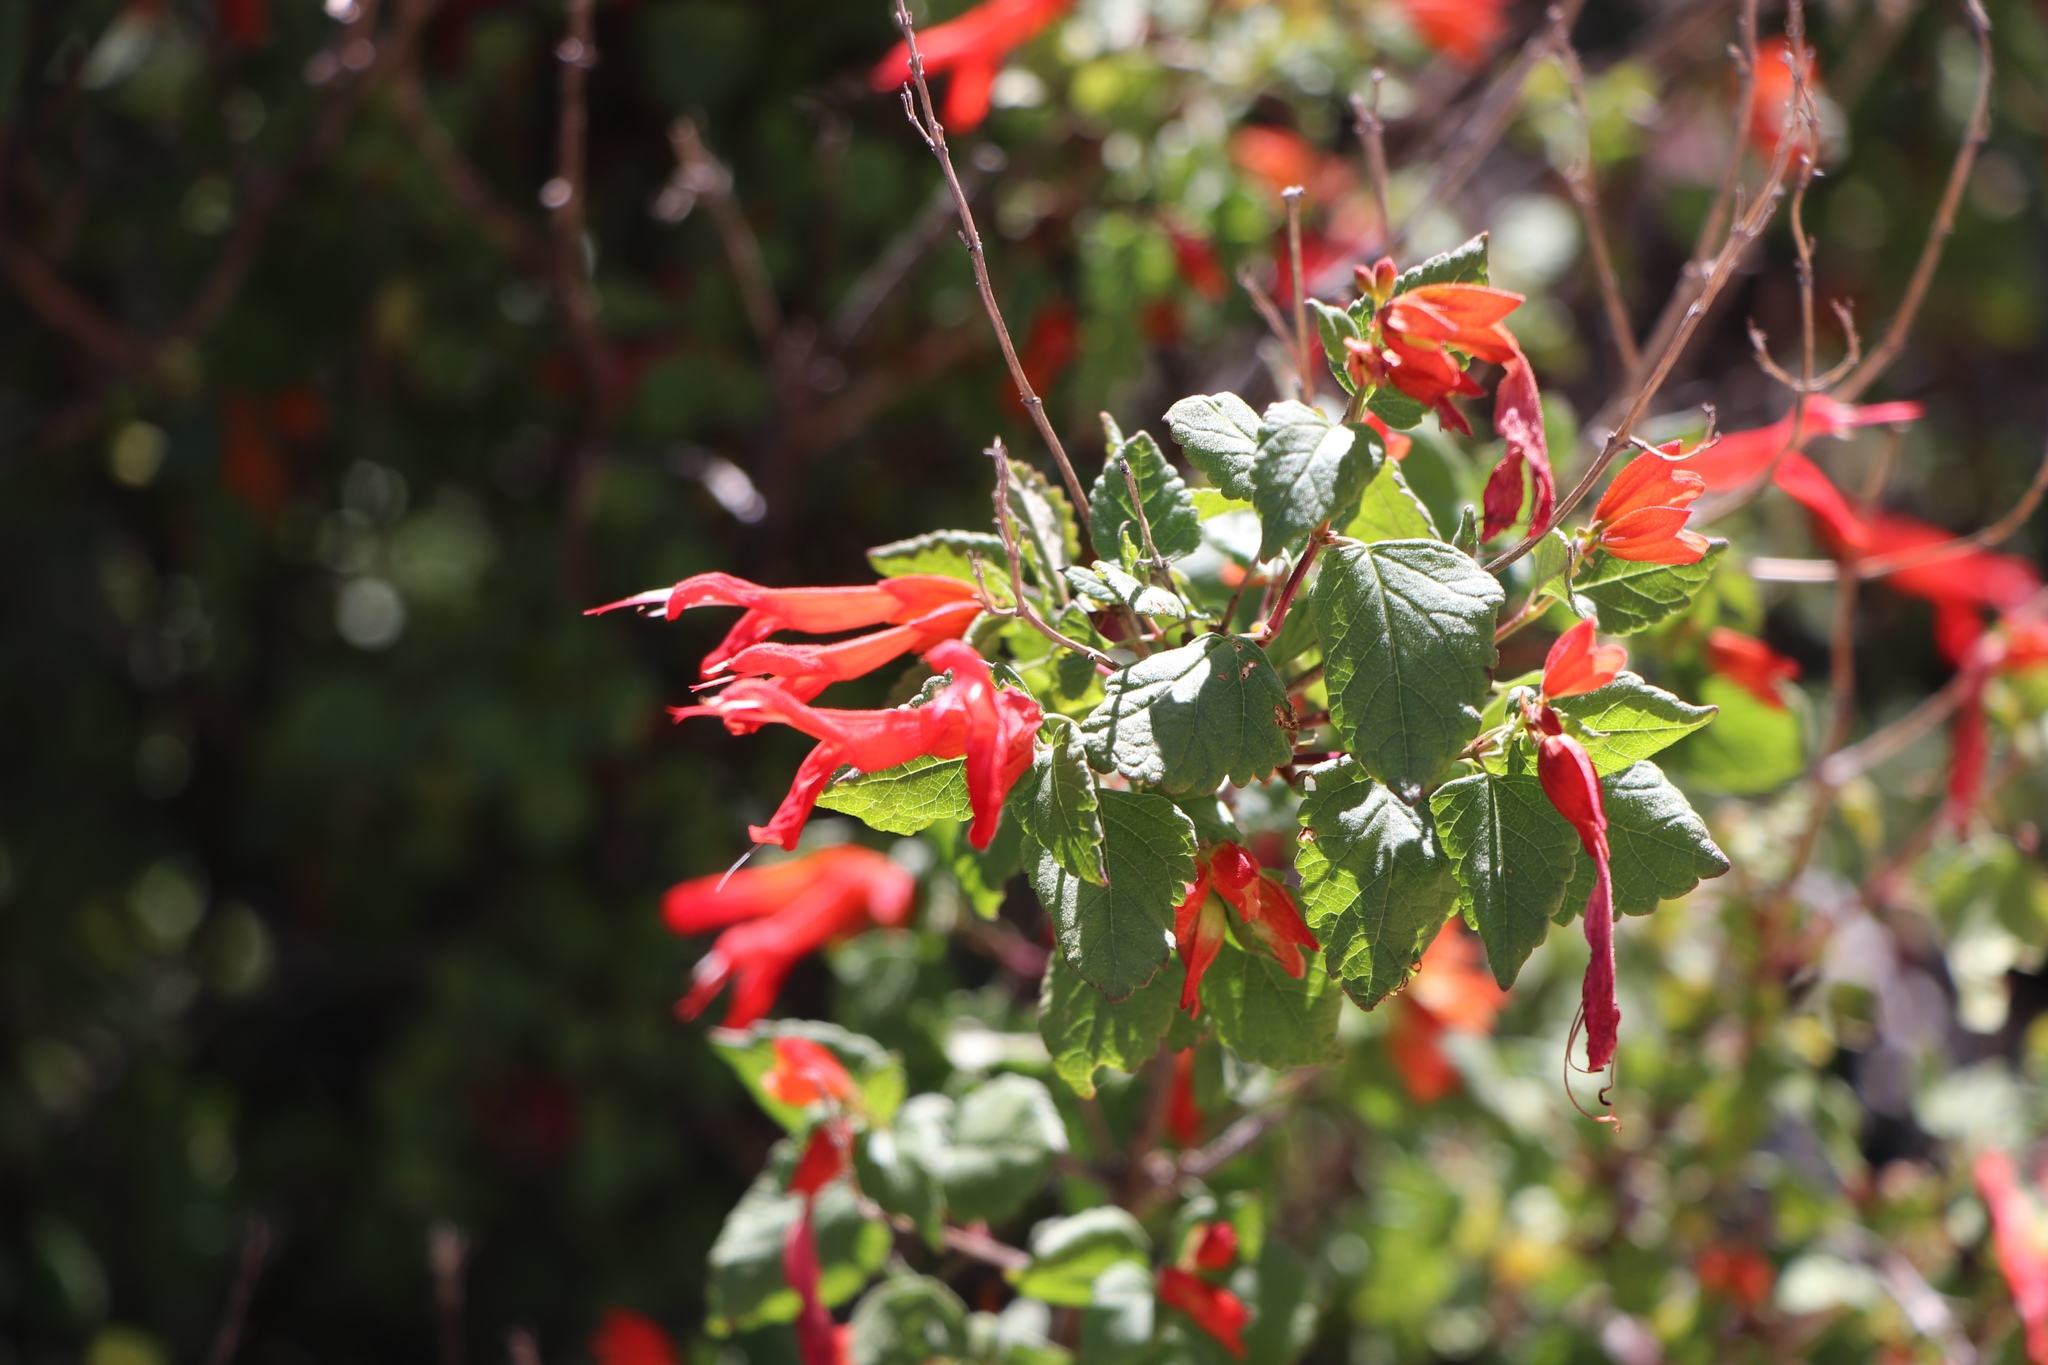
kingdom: Plantae
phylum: Tracheophyta
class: Magnoliopsida
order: Lamiales
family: Lamiaceae
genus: Salvia
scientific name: Salvia regla
